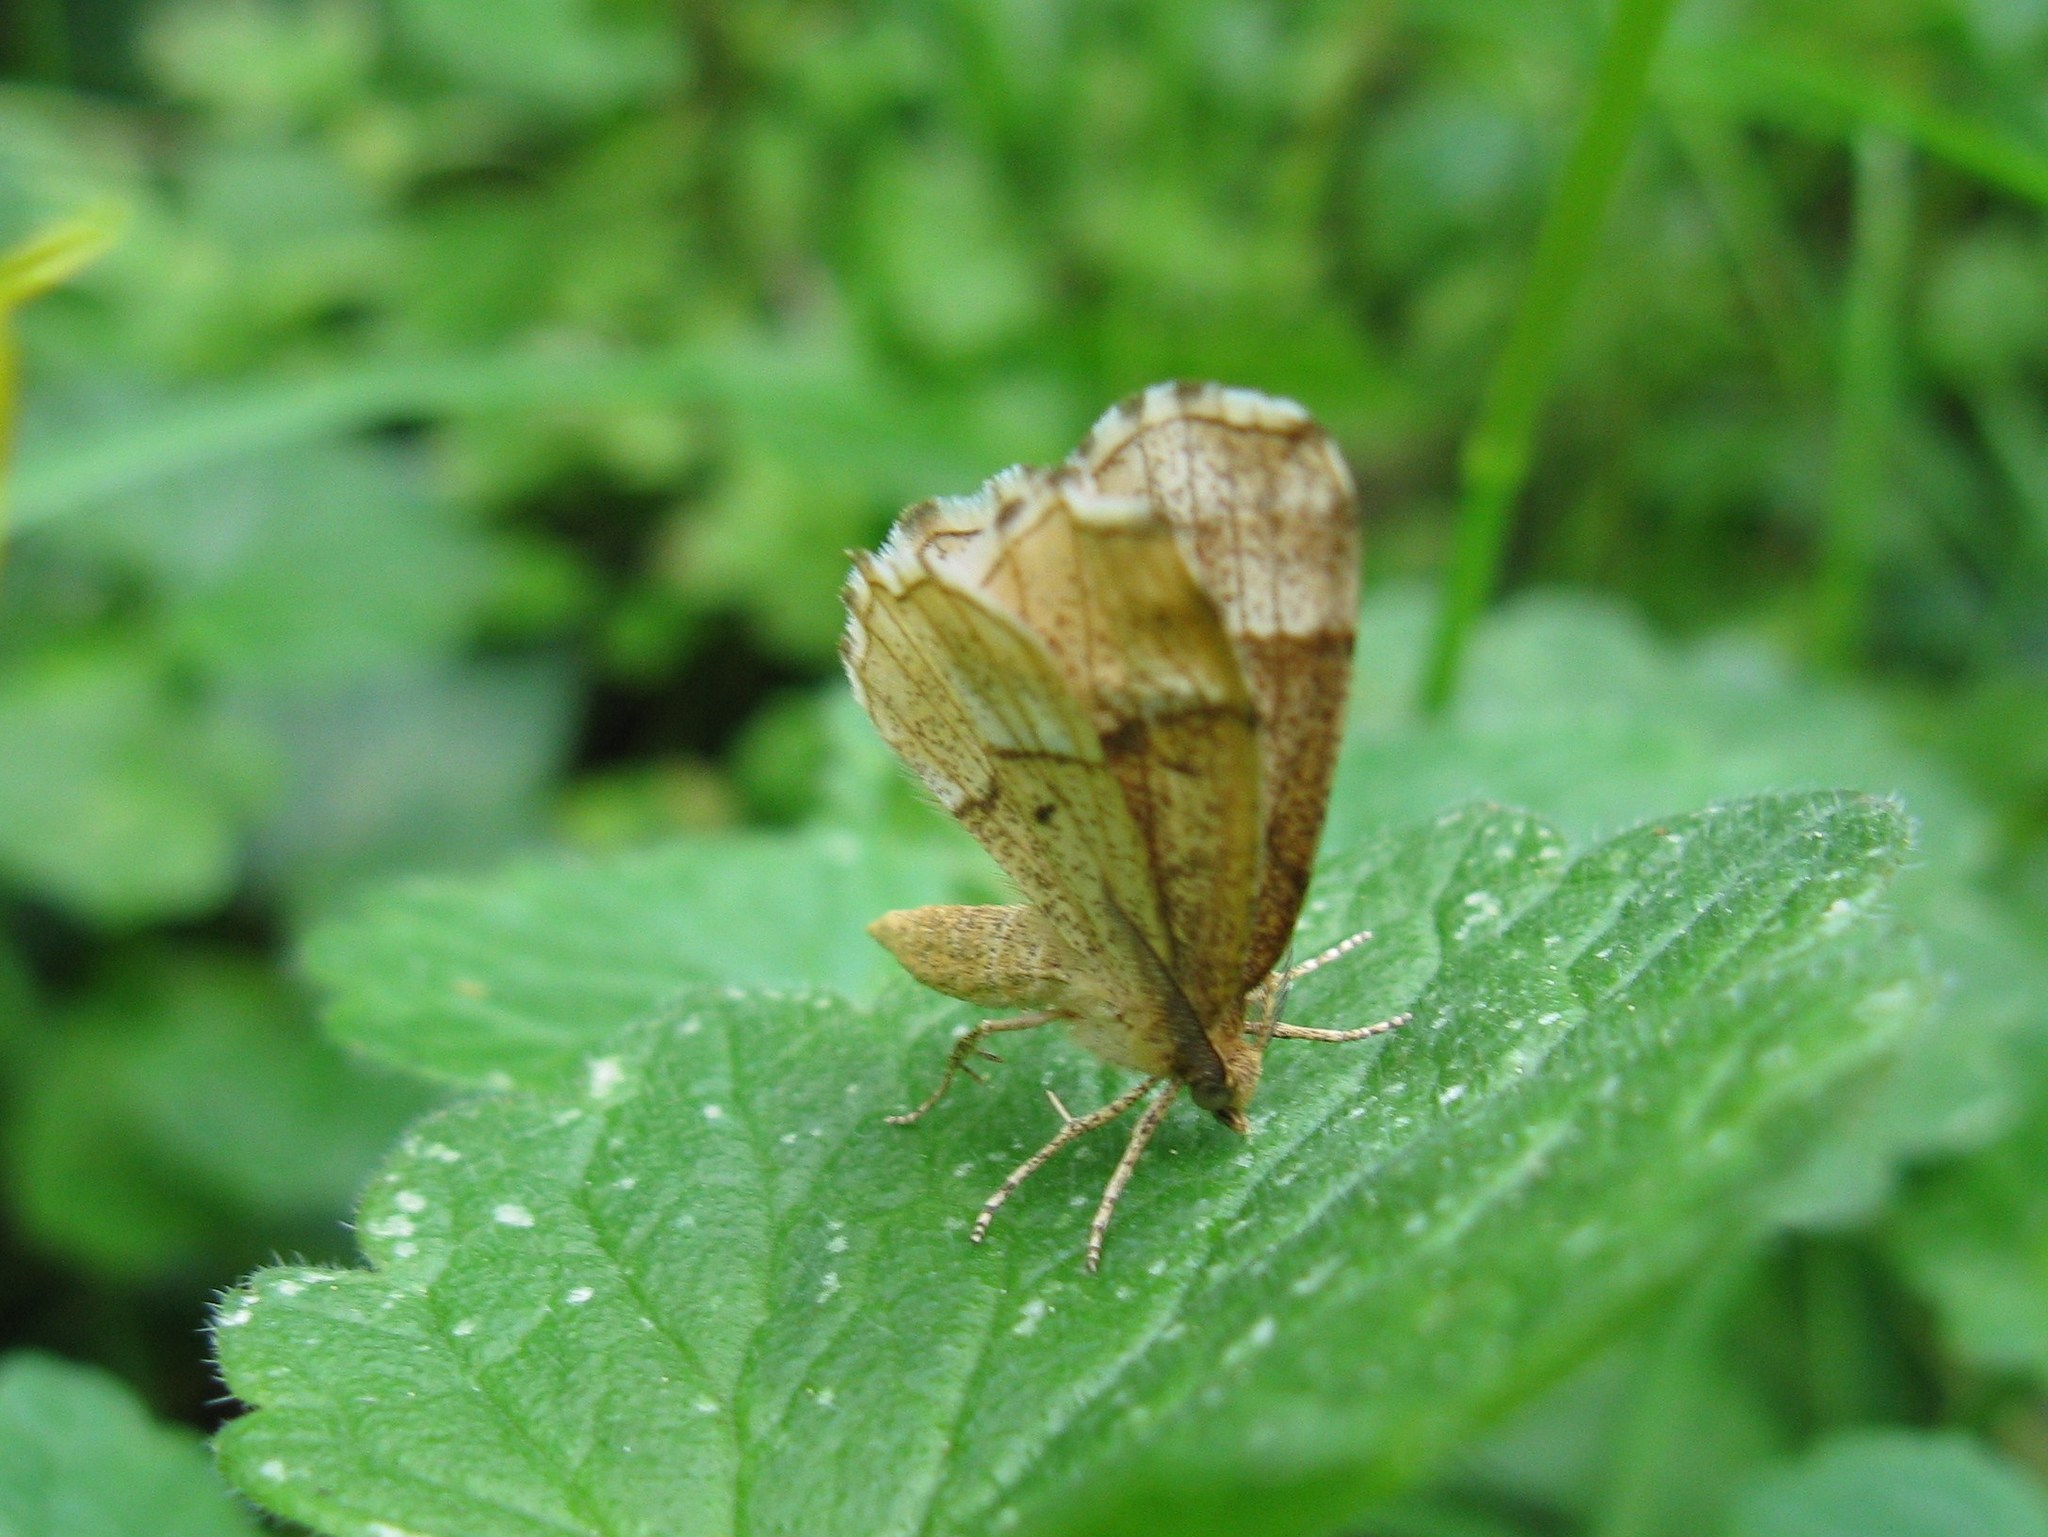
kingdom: Animalia
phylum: Arthropoda
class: Insecta
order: Lepidoptera
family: Geometridae
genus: Cepphis
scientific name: Cepphis advenaria
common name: Little thorn
